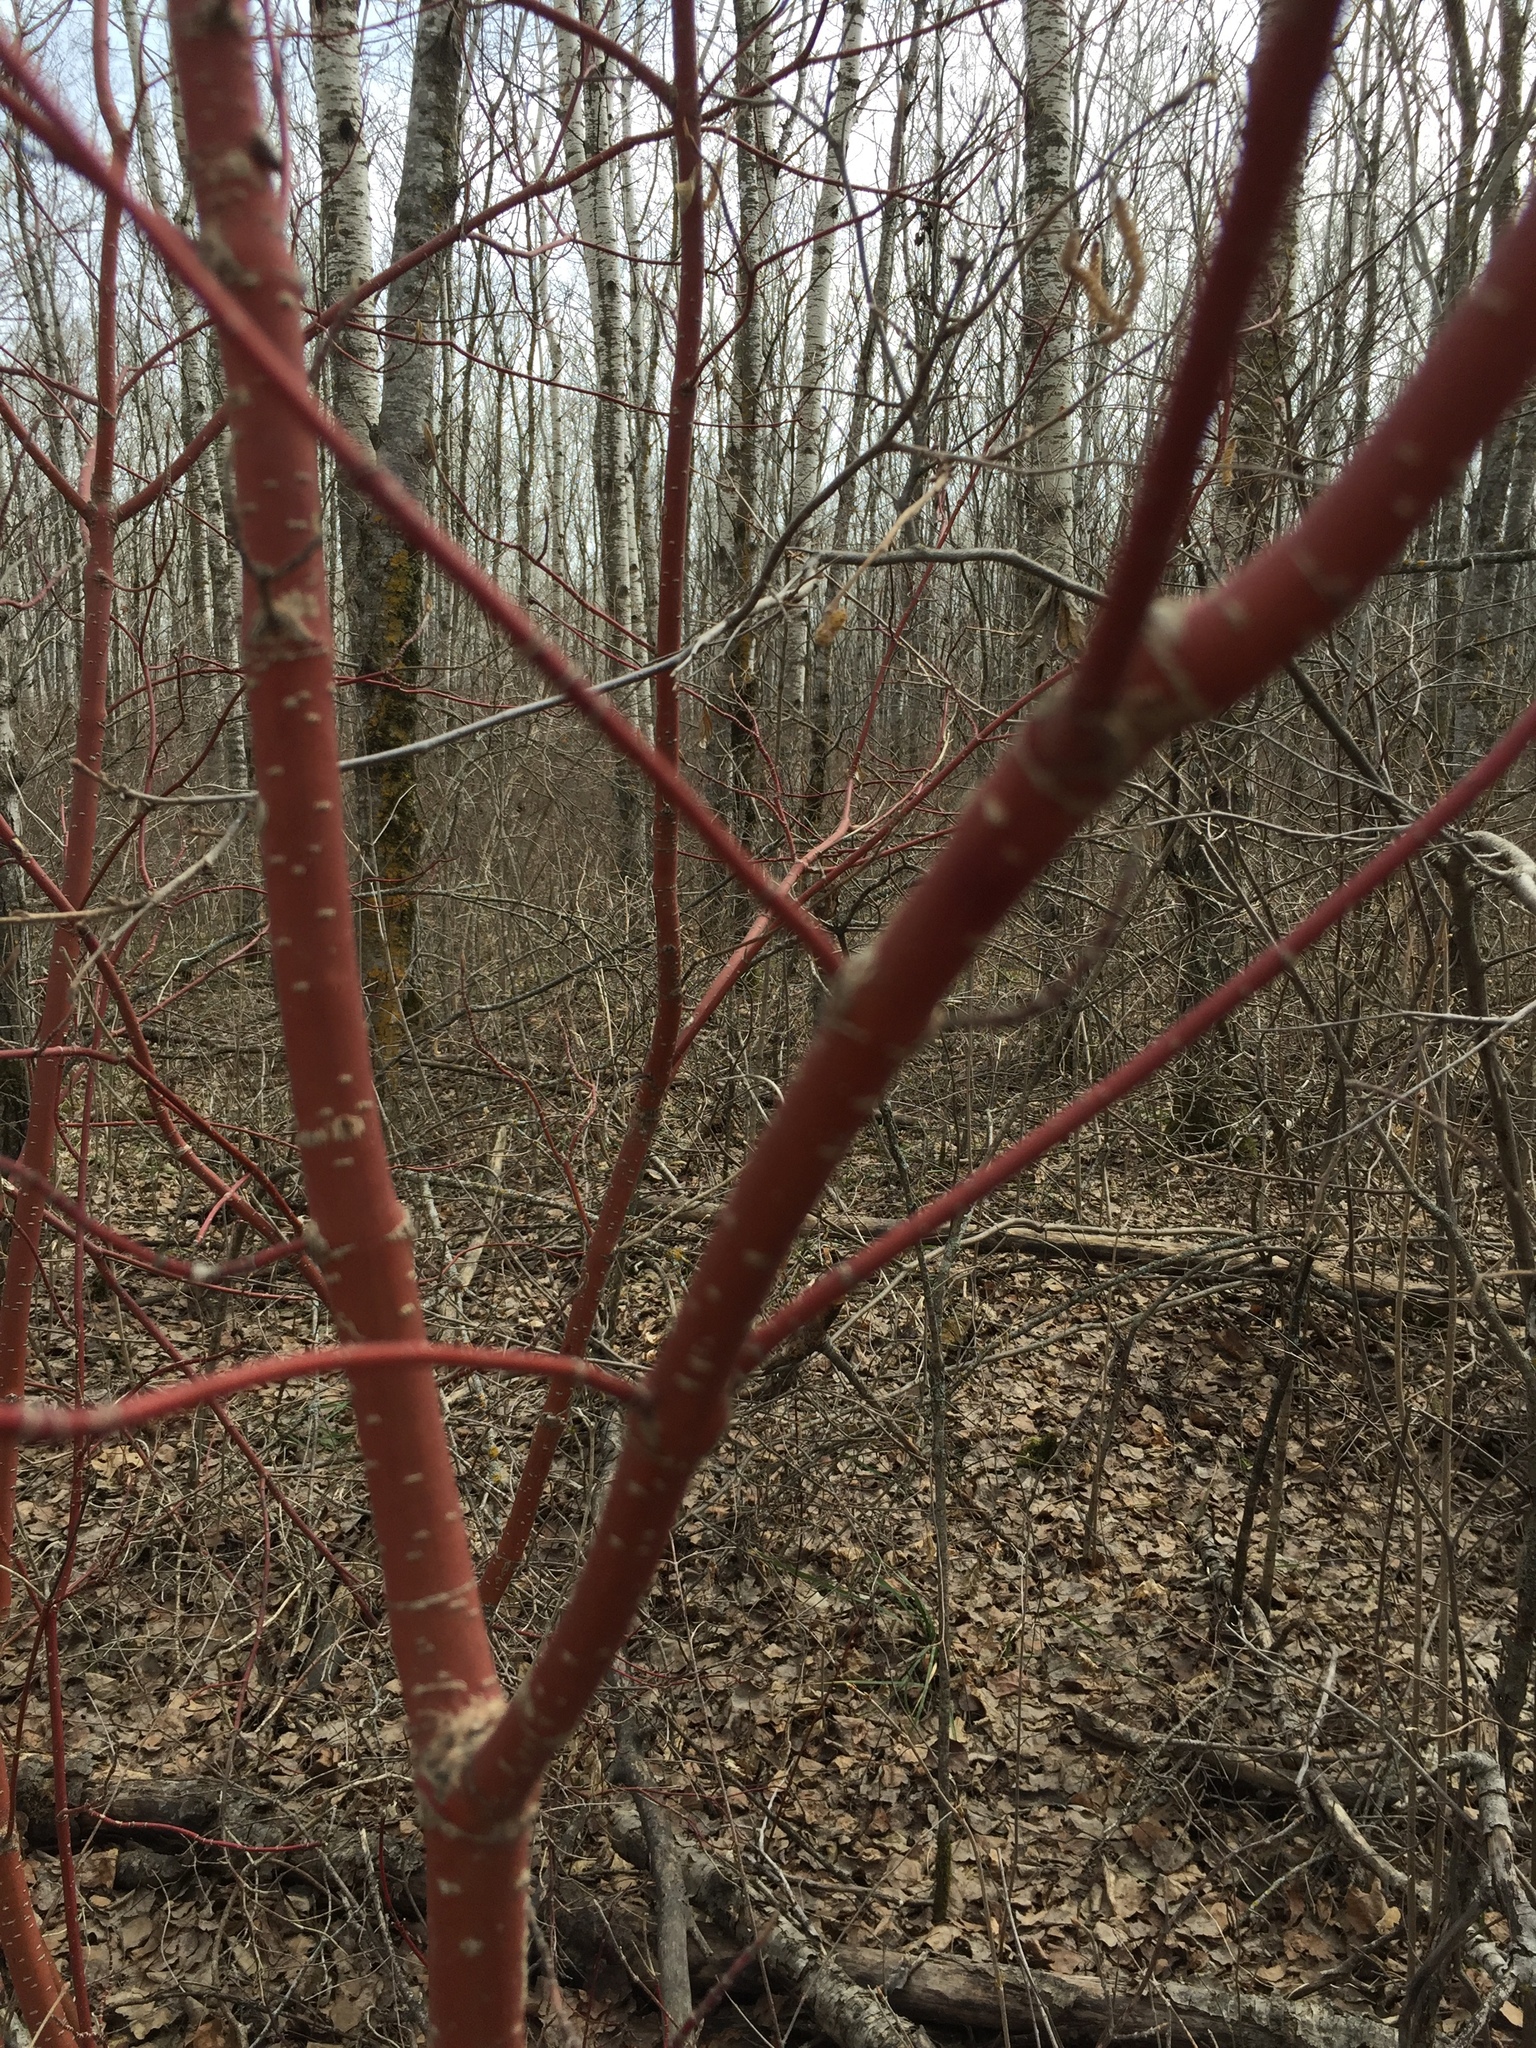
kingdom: Plantae
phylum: Tracheophyta
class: Magnoliopsida
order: Cornales
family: Cornaceae
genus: Cornus
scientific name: Cornus sericea
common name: Red-osier dogwood
